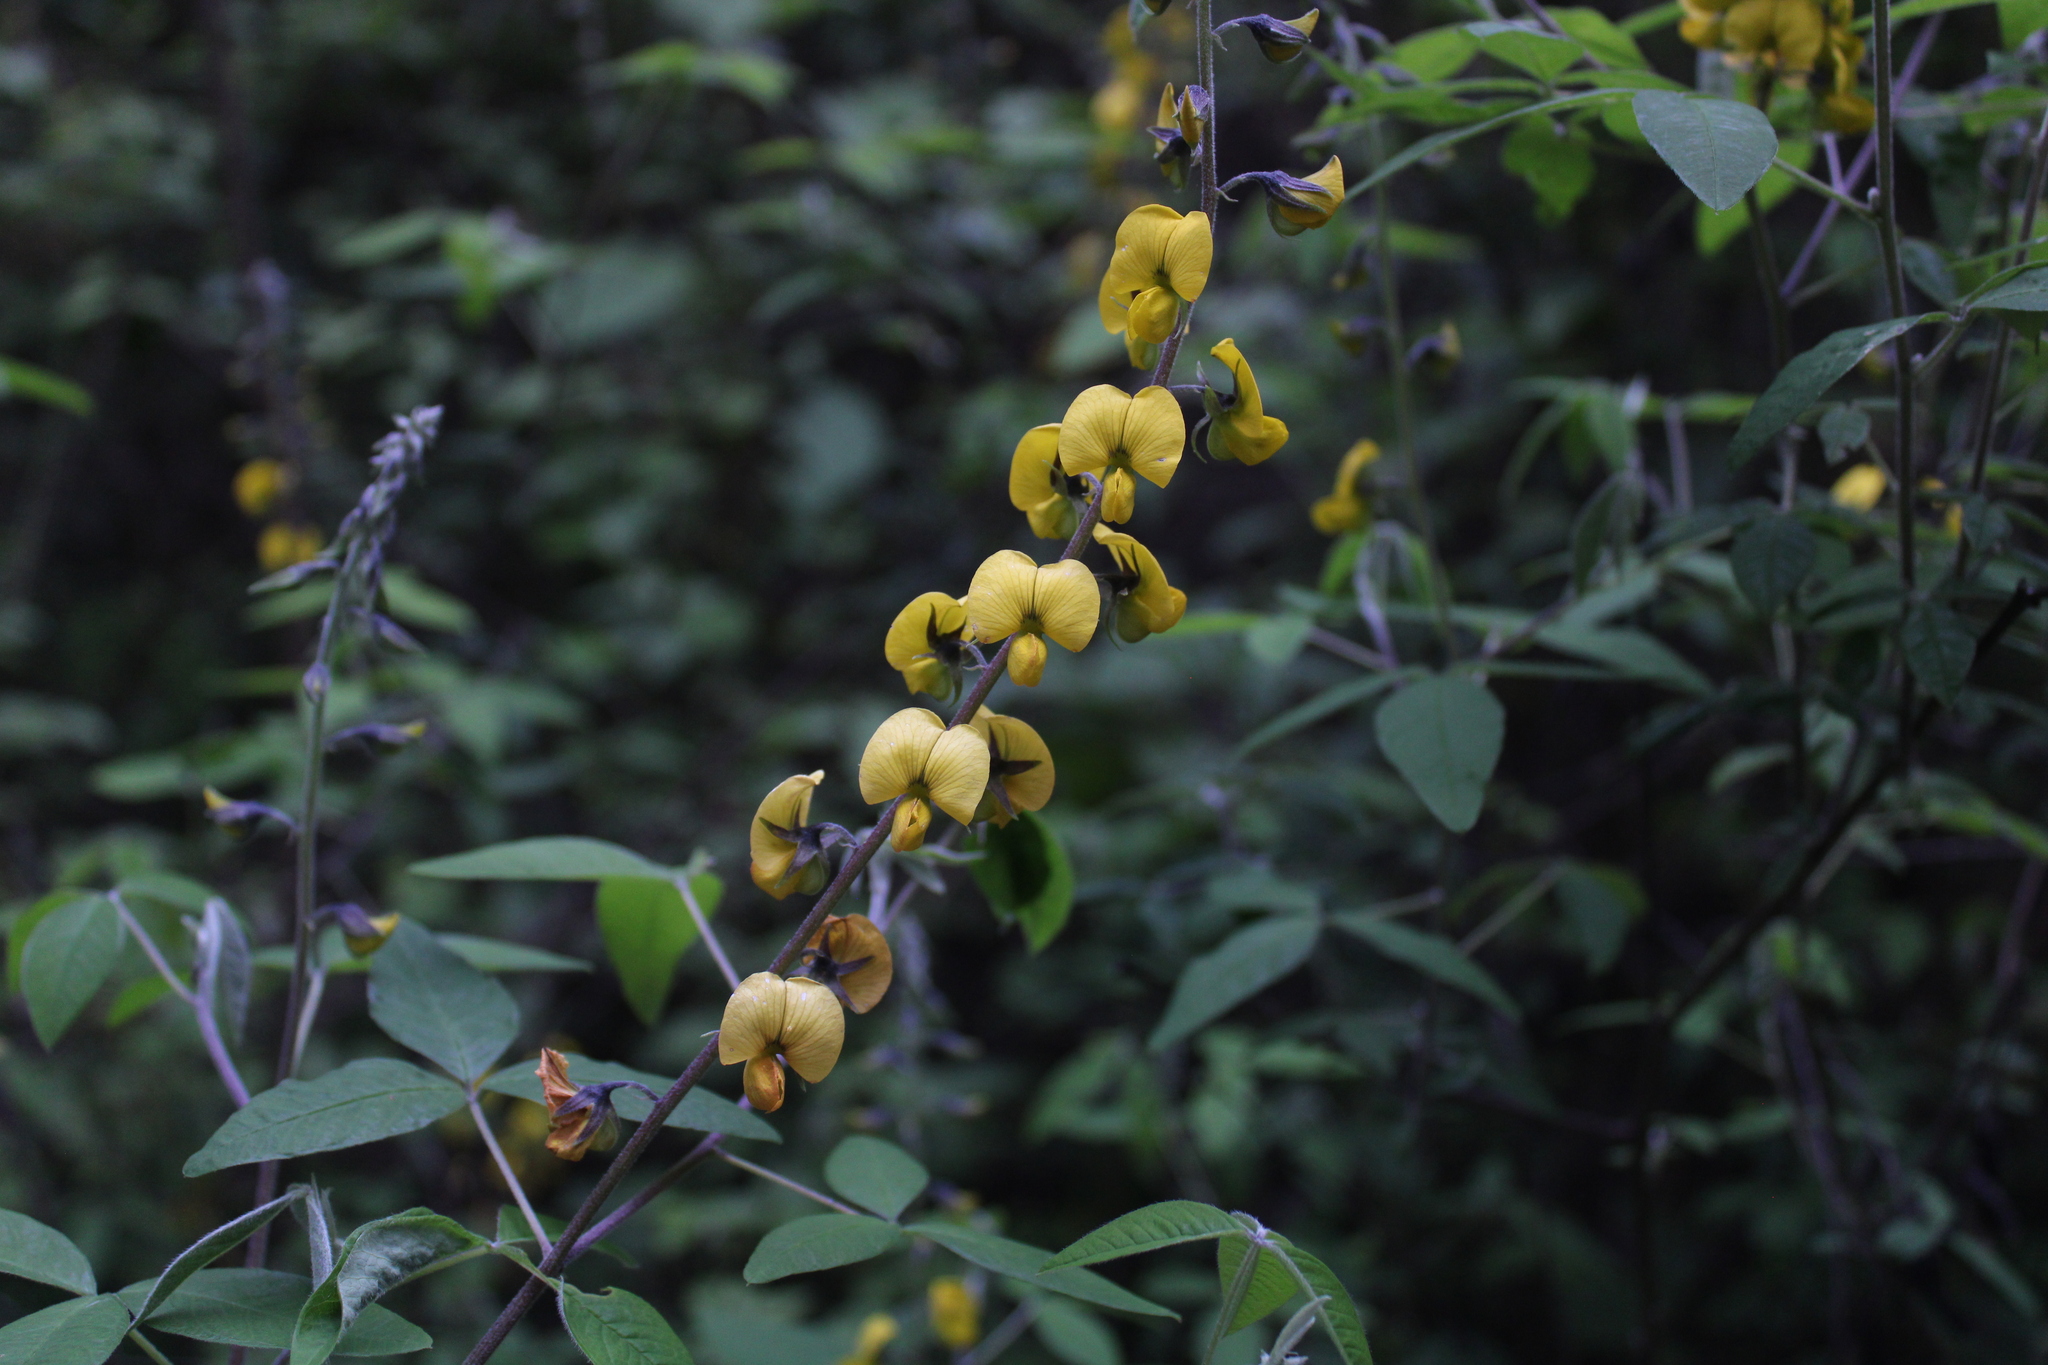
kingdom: Plantae
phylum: Tracheophyta
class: Magnoliopsida
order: Fabales
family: Fabaceae
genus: Crotalaria
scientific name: Crotalaria longirostrata
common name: Longbeak rattlebox
